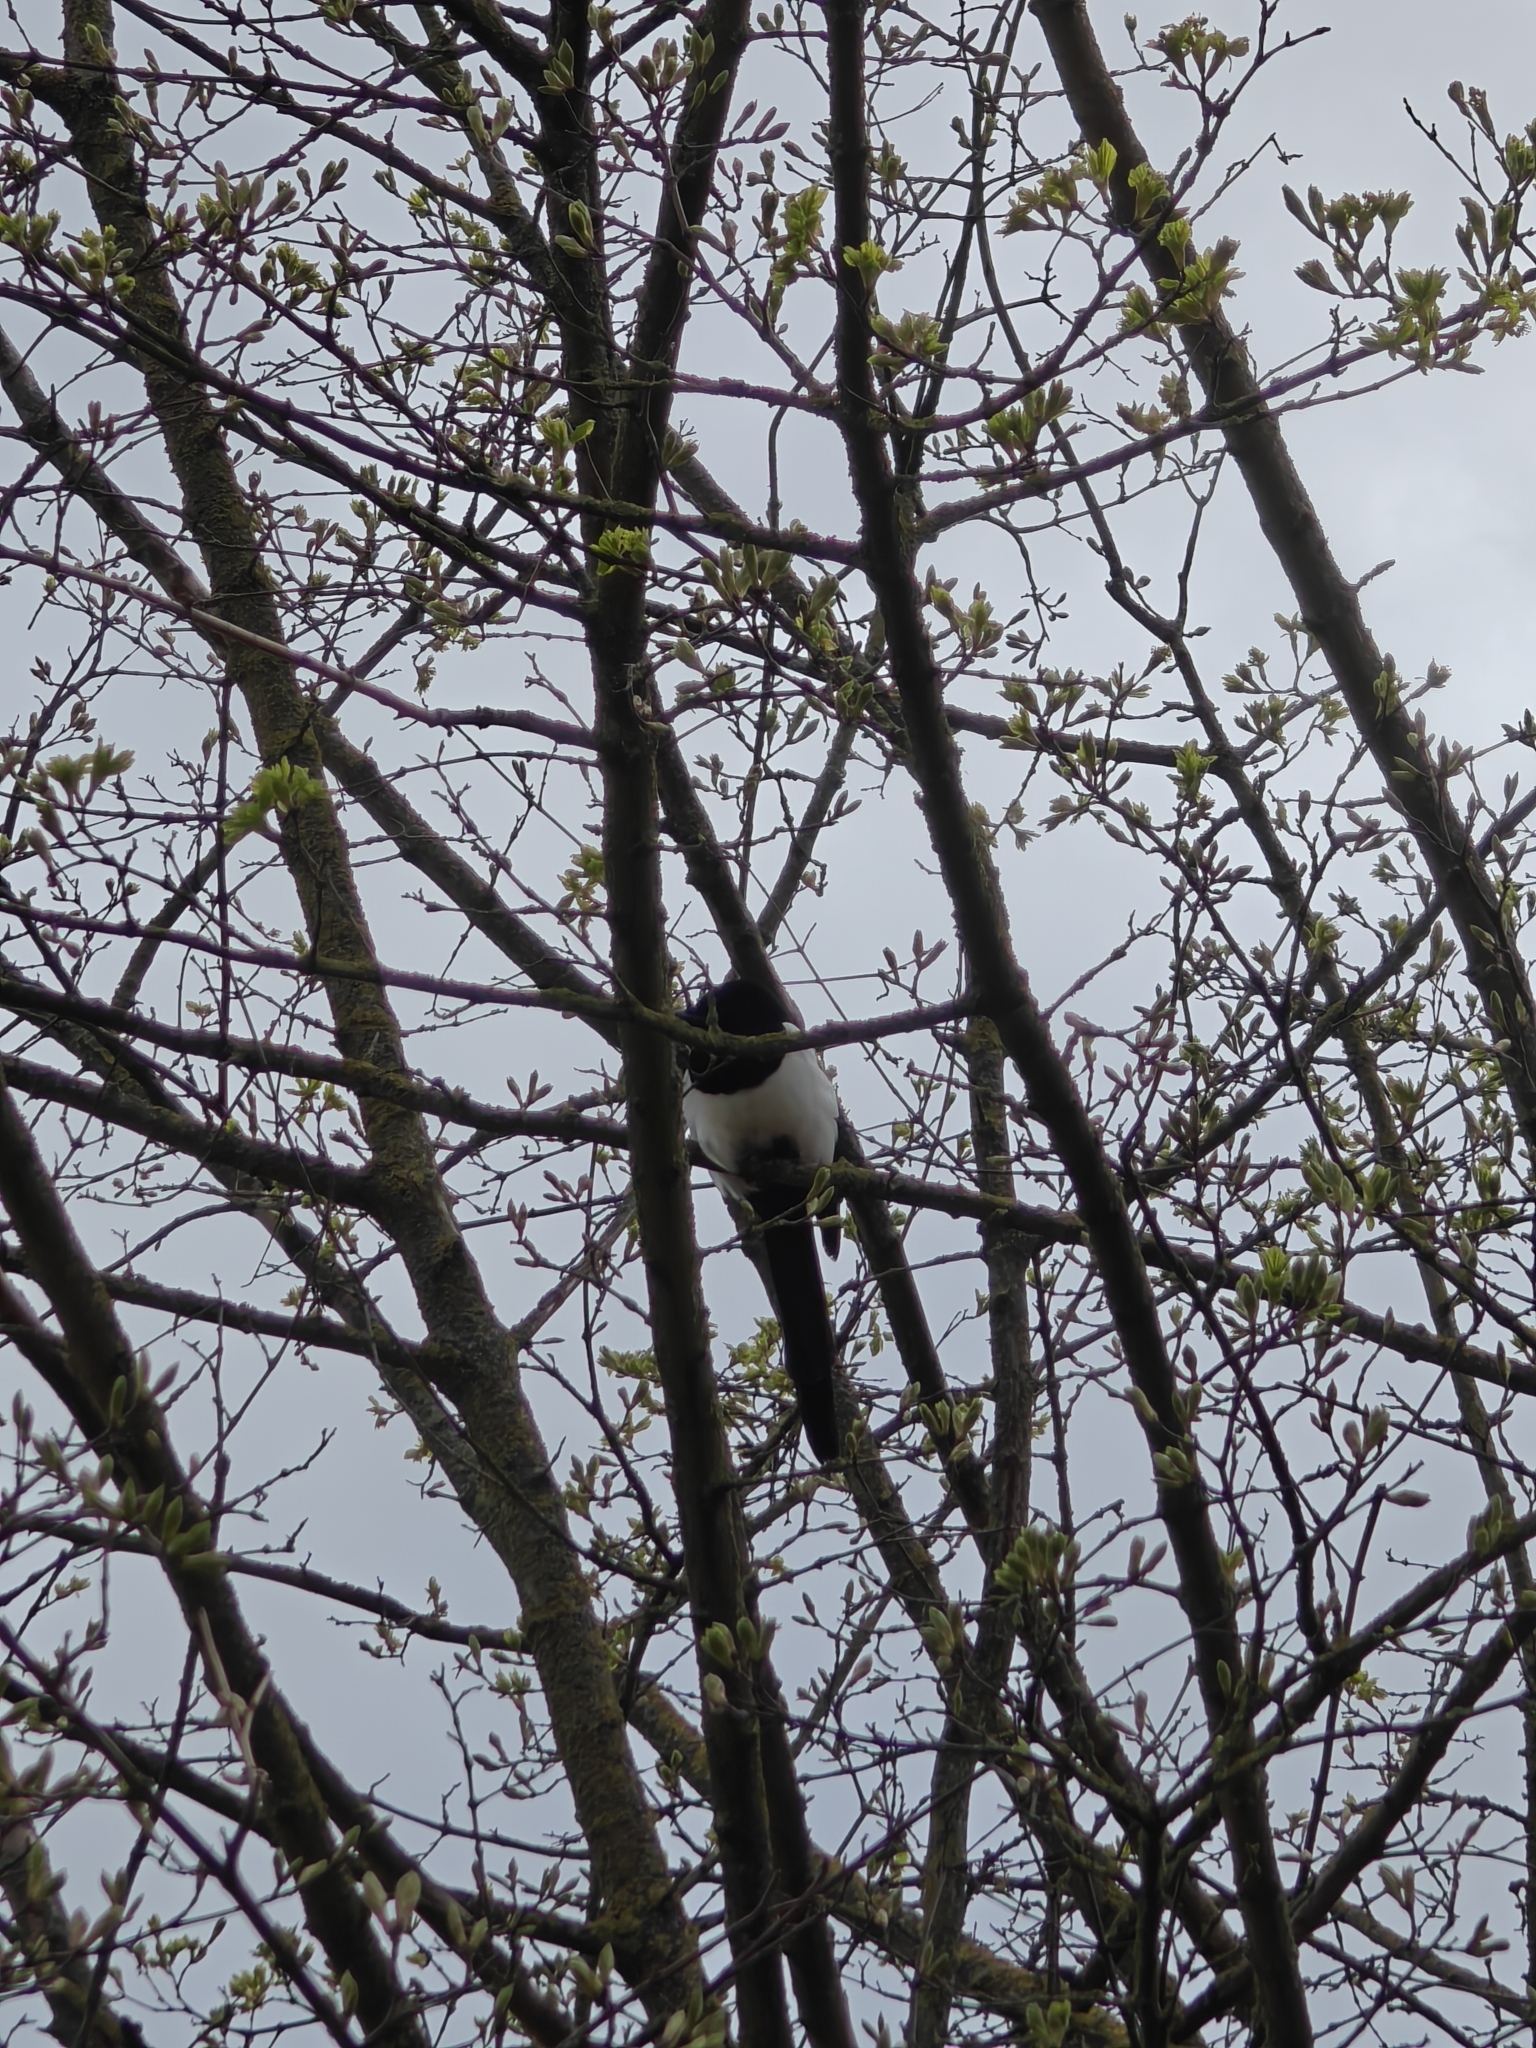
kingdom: Animalia
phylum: Chordata
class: Aves
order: Passeriformes
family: Corvidae
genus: Pica
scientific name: Pica pica
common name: Eurasian magpie
